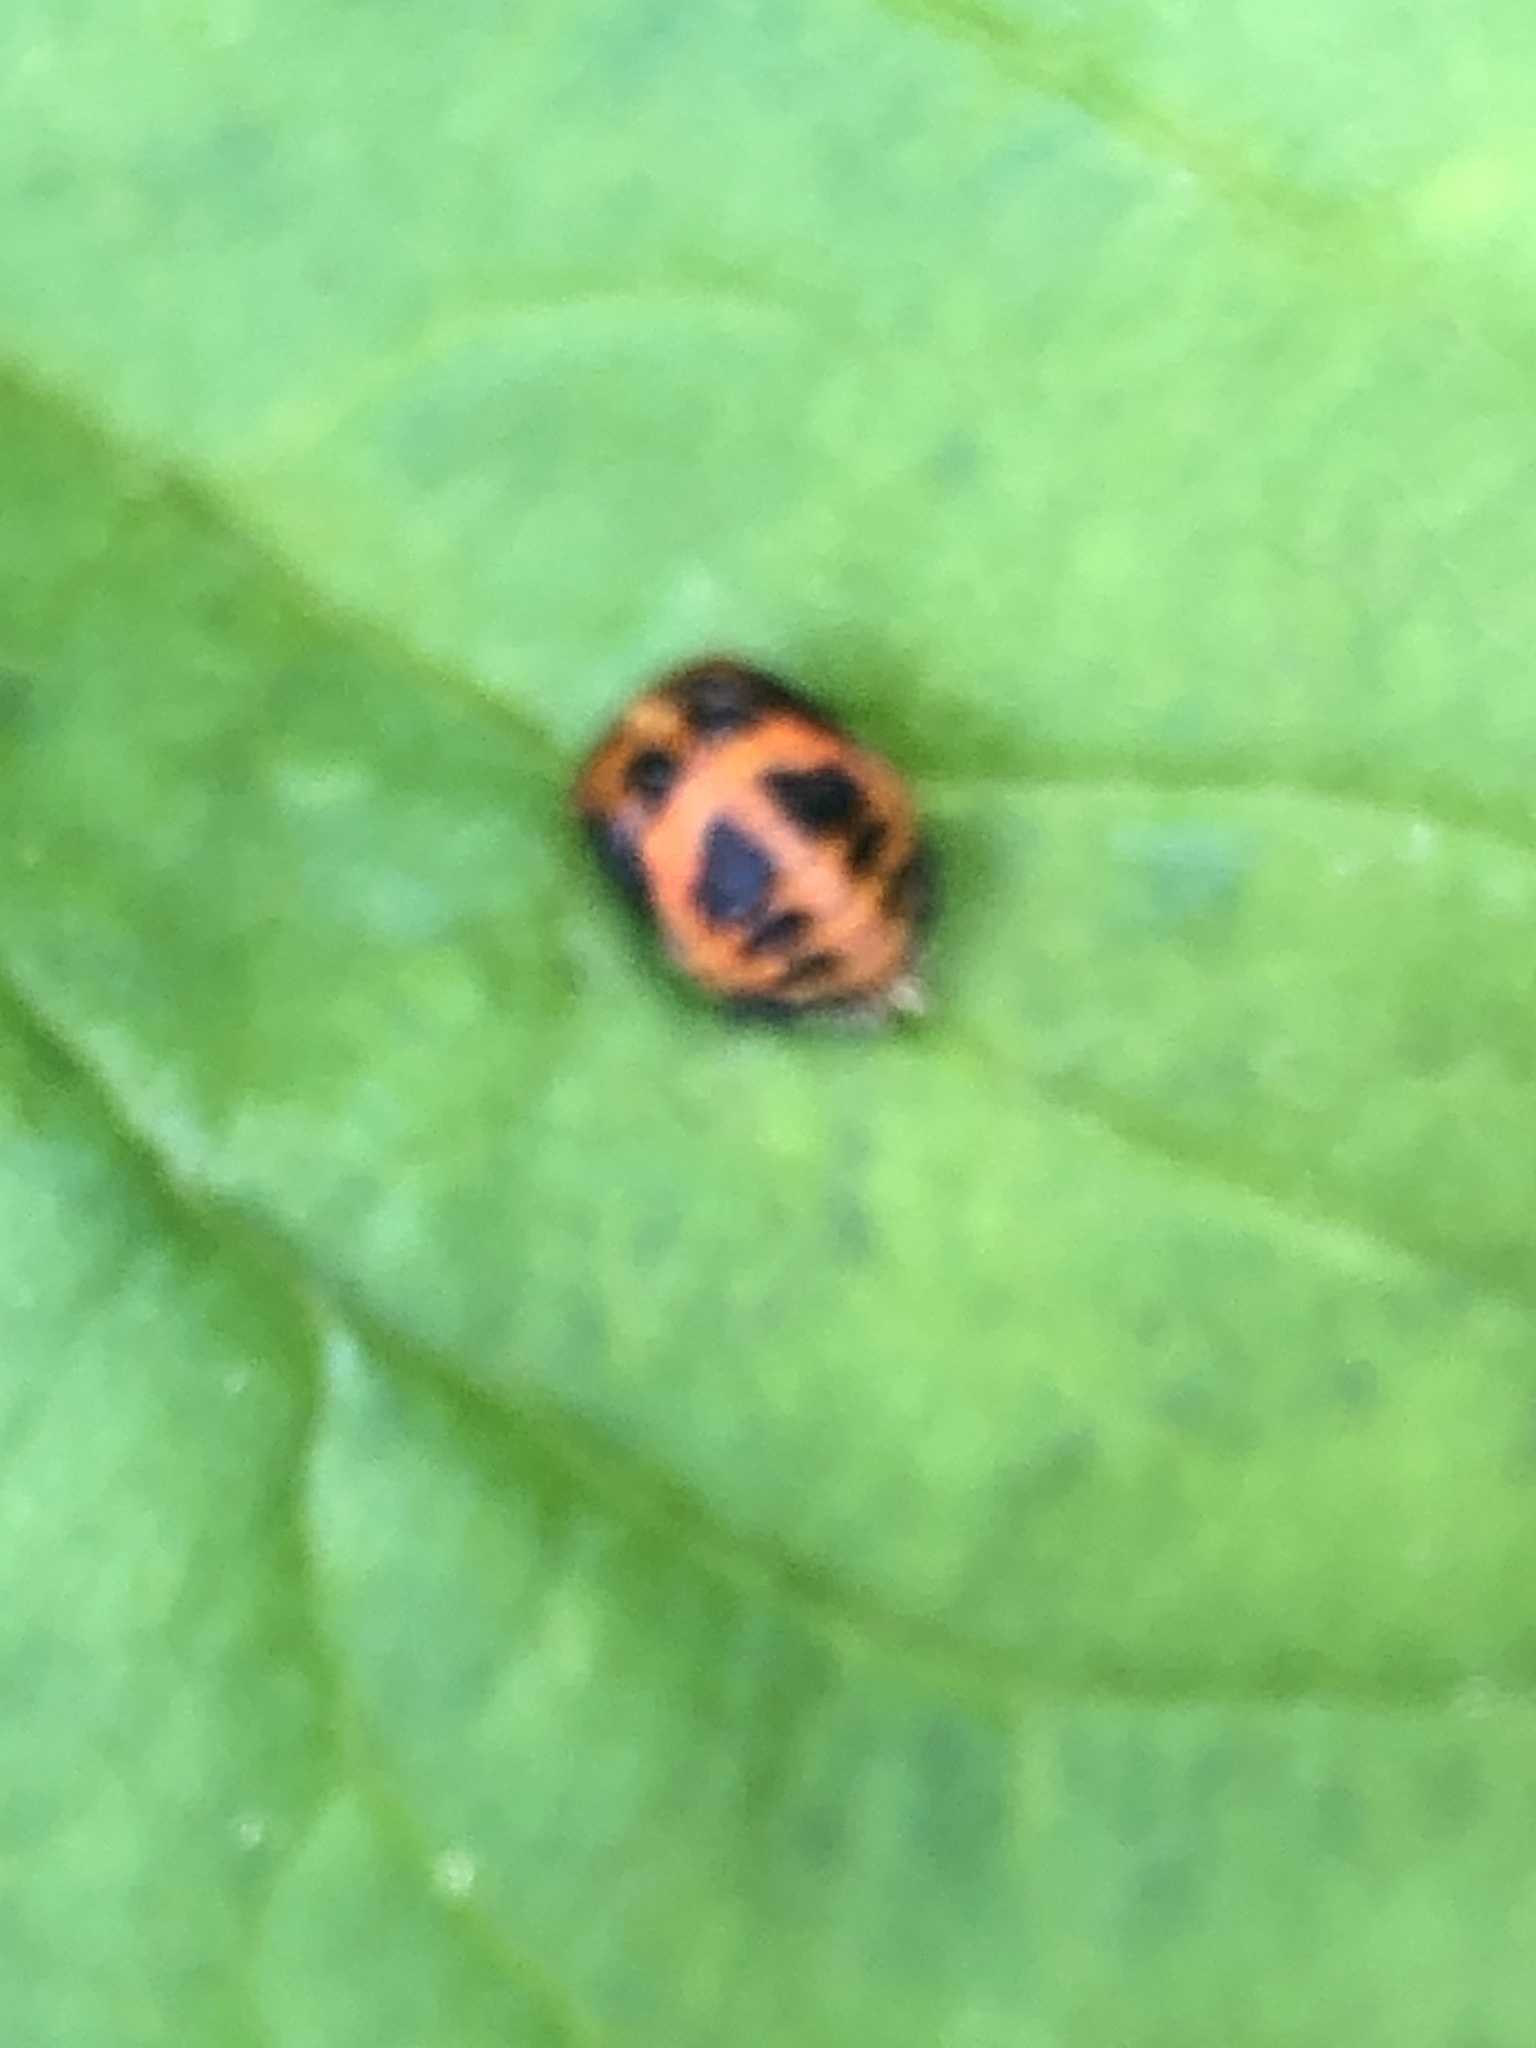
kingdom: Animalia
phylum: Arthropoda
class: Insecta
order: Coleoptera
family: Coccinellidae
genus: Harmonia
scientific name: Harmonia axyridis
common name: Harlequin ladybird
